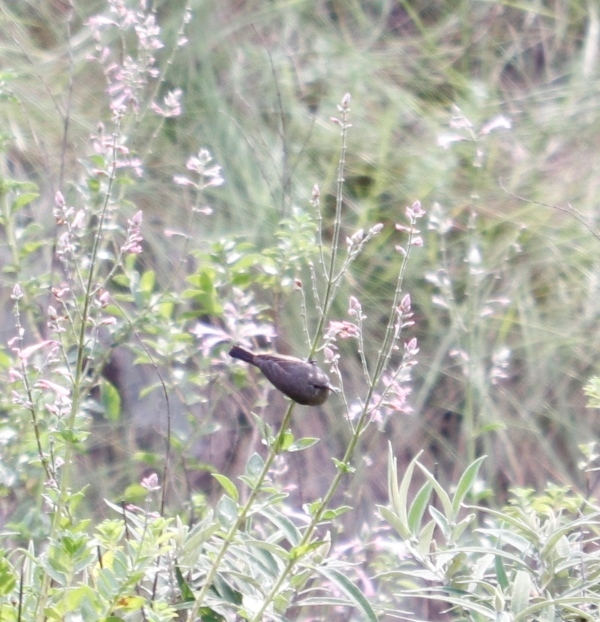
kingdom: Animalia
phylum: Chordata
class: Aves
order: Passeriformes
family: Nectariniidae
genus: Cinnyris
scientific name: Cinnyris chalybeus
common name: Southern double-collared sunbird
